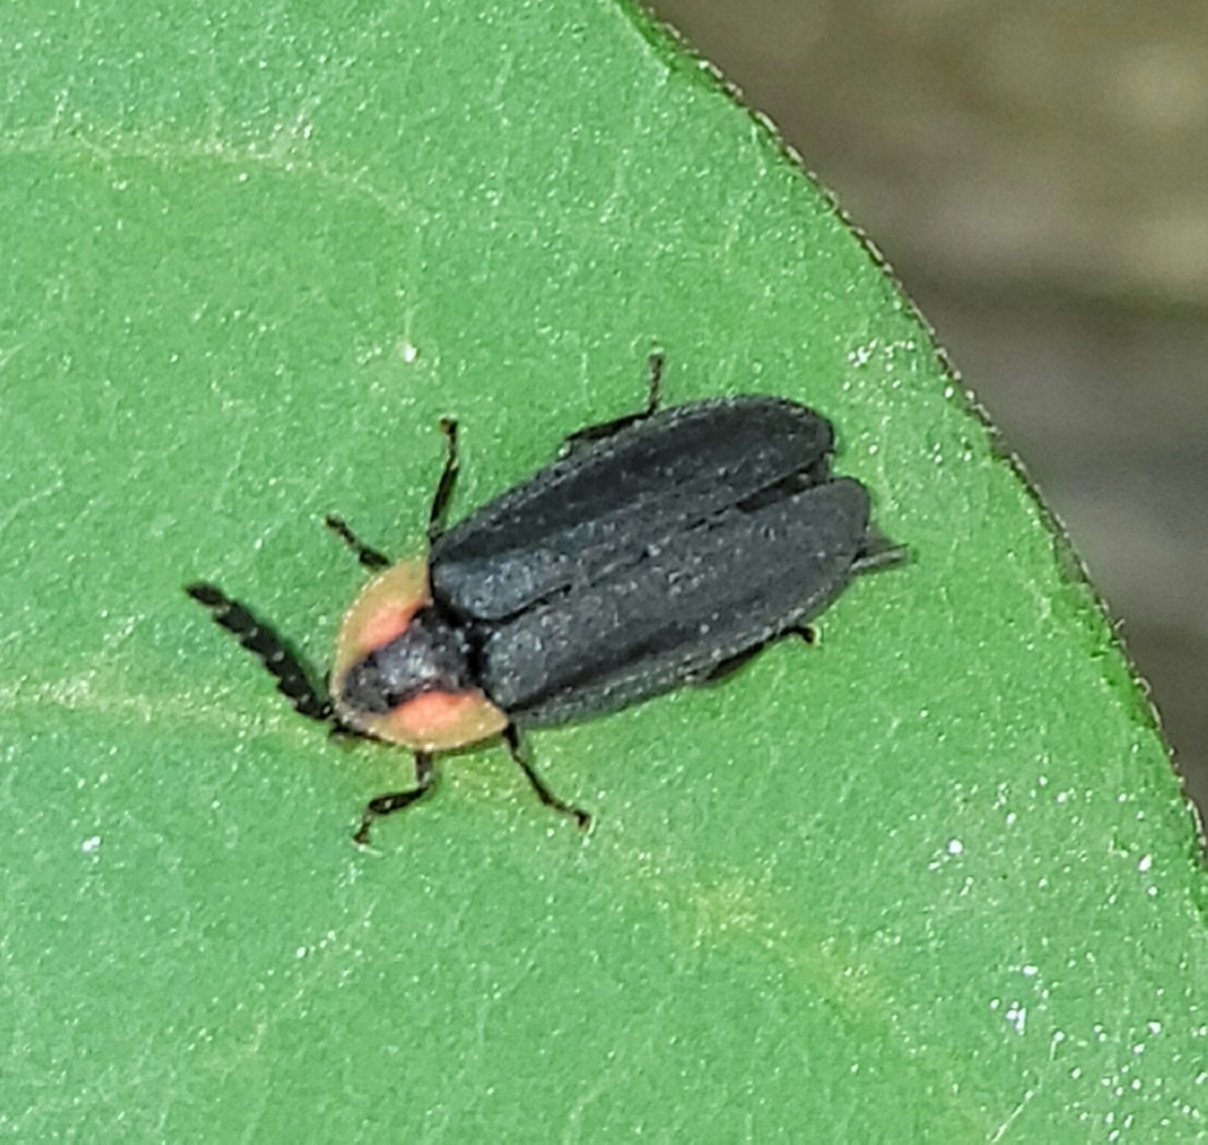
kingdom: Animalia
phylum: Arthropoda
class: Insecta
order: Coleoptera
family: Lampyridae
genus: Lucidota
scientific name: Lucidota atra
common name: Black firefly
